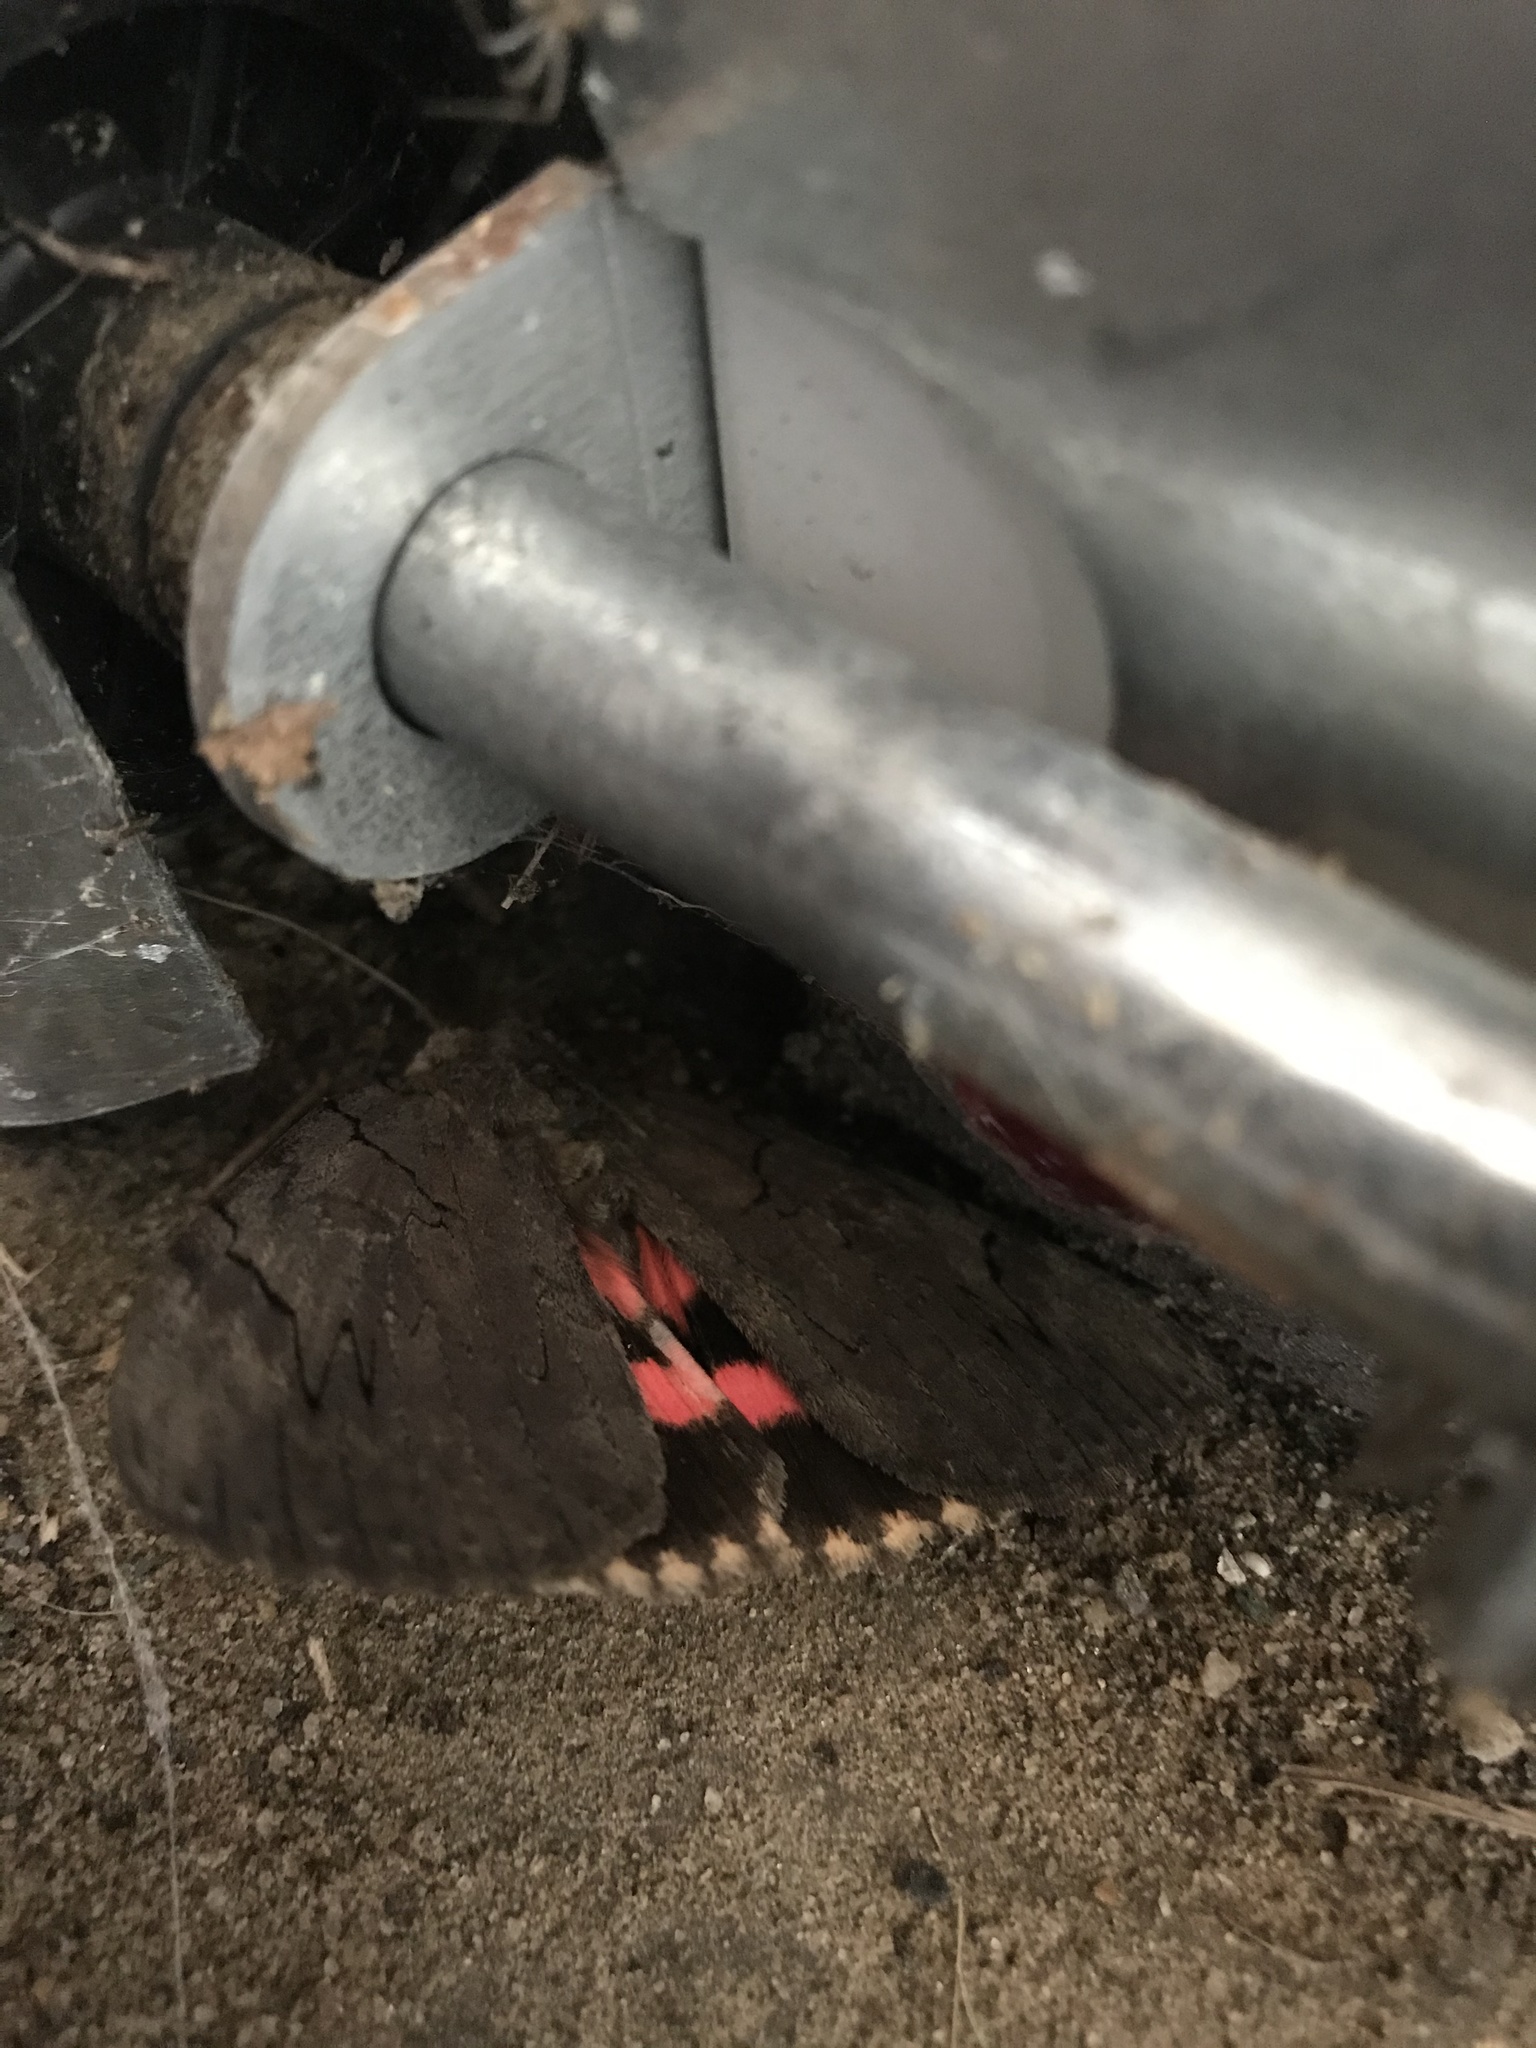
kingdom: Animalia
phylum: Arthropoda
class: Insecta
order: Lepidoptera
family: Erebidae
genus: Catocala
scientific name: Catocala cara
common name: Darling underwing
